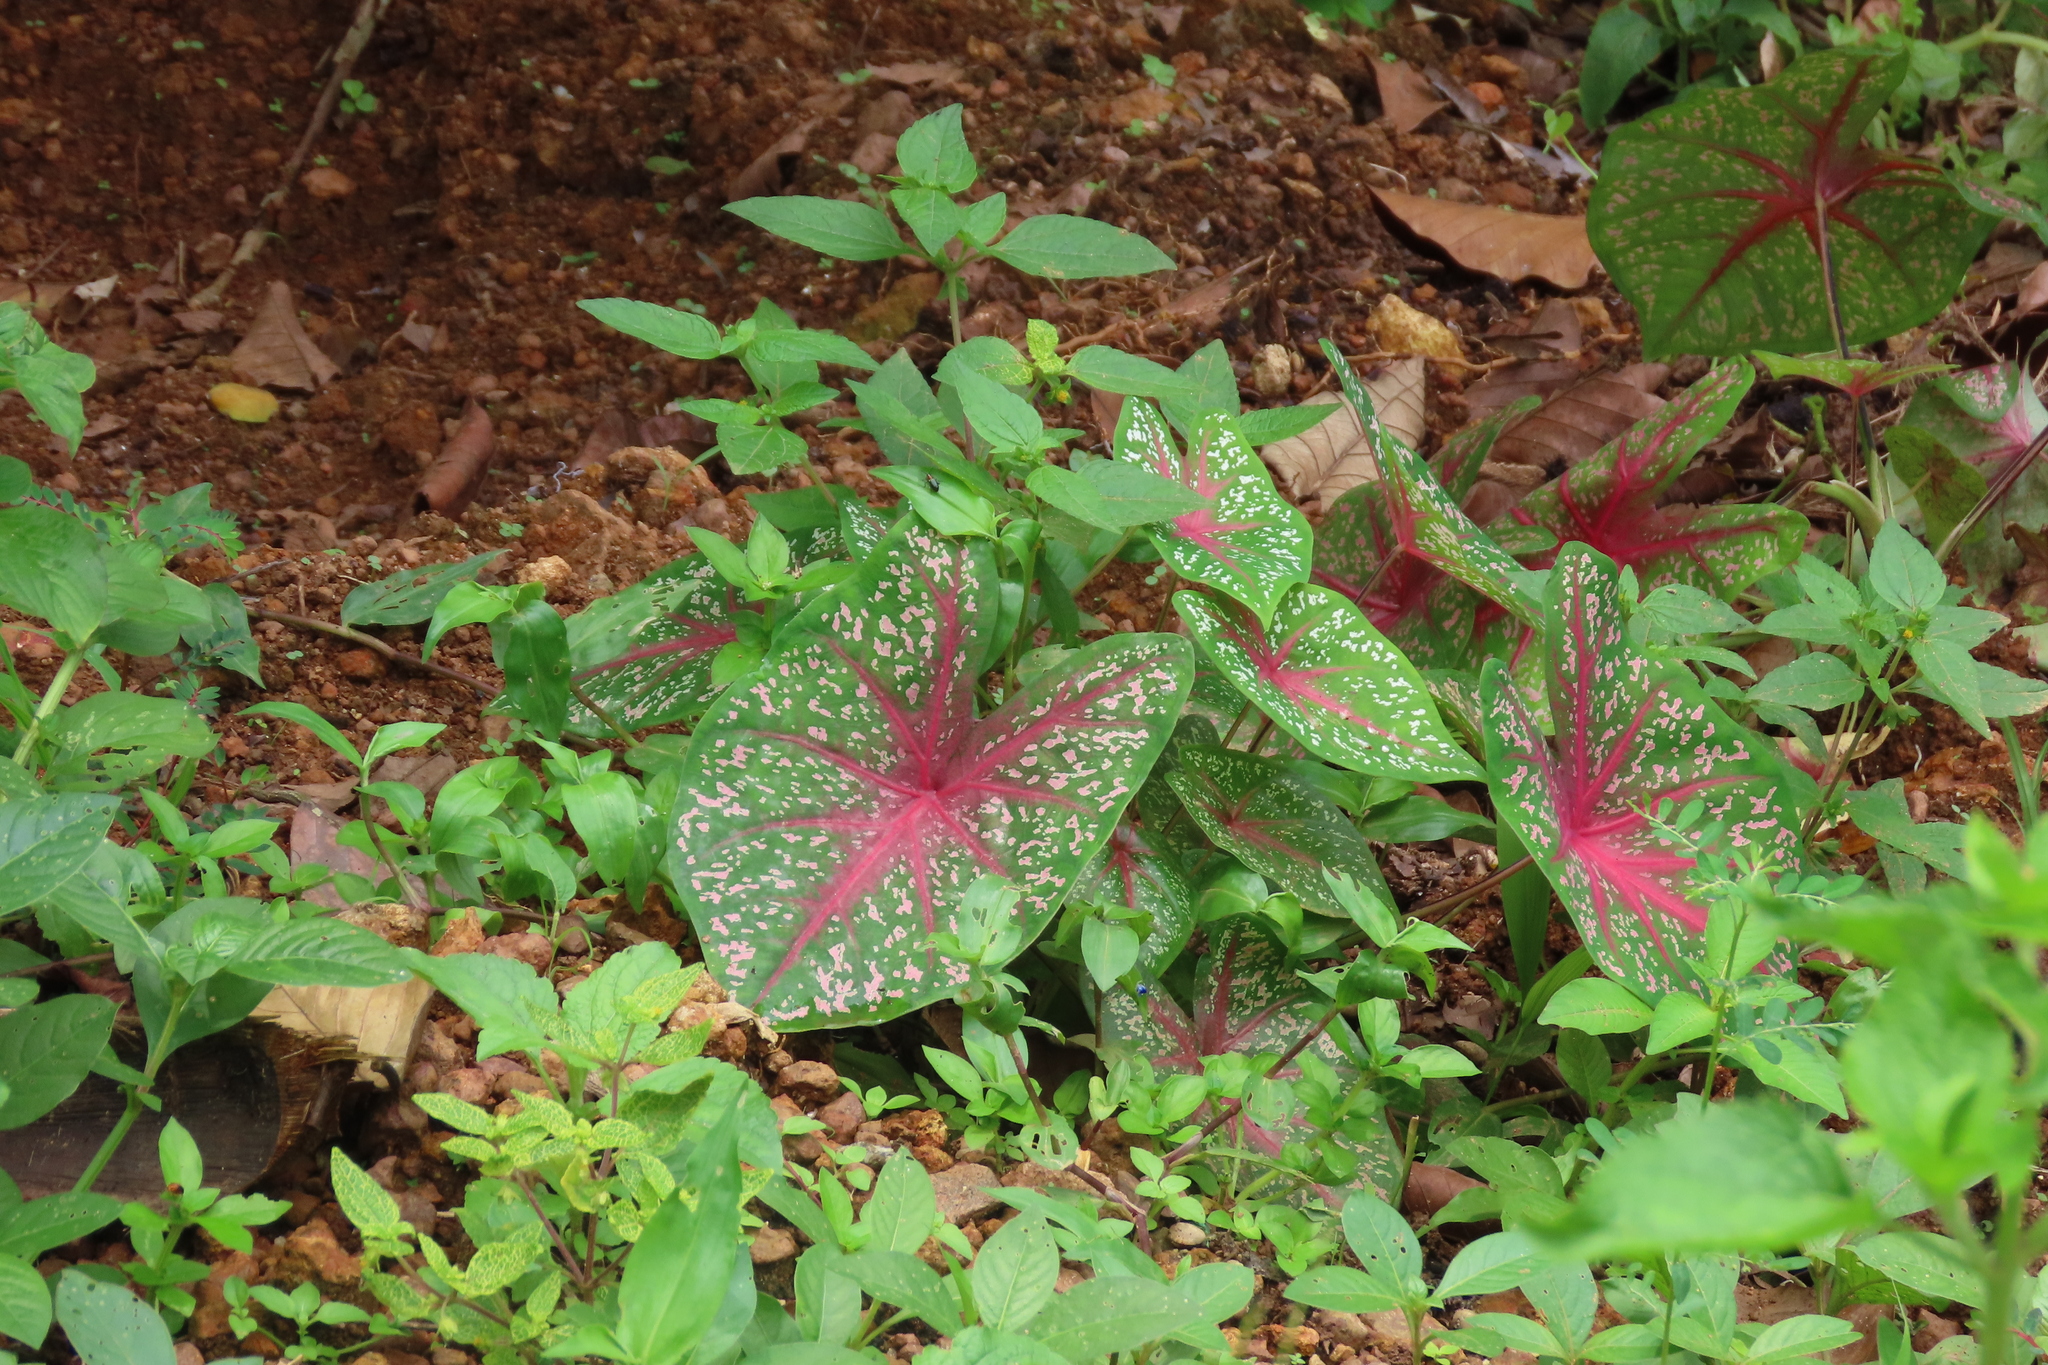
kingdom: Plantae
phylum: Tracheophyta
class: Liliopsida
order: Alismatales
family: Araceae
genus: Caladium
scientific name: Caladium bicolor
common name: Artist's pallet
